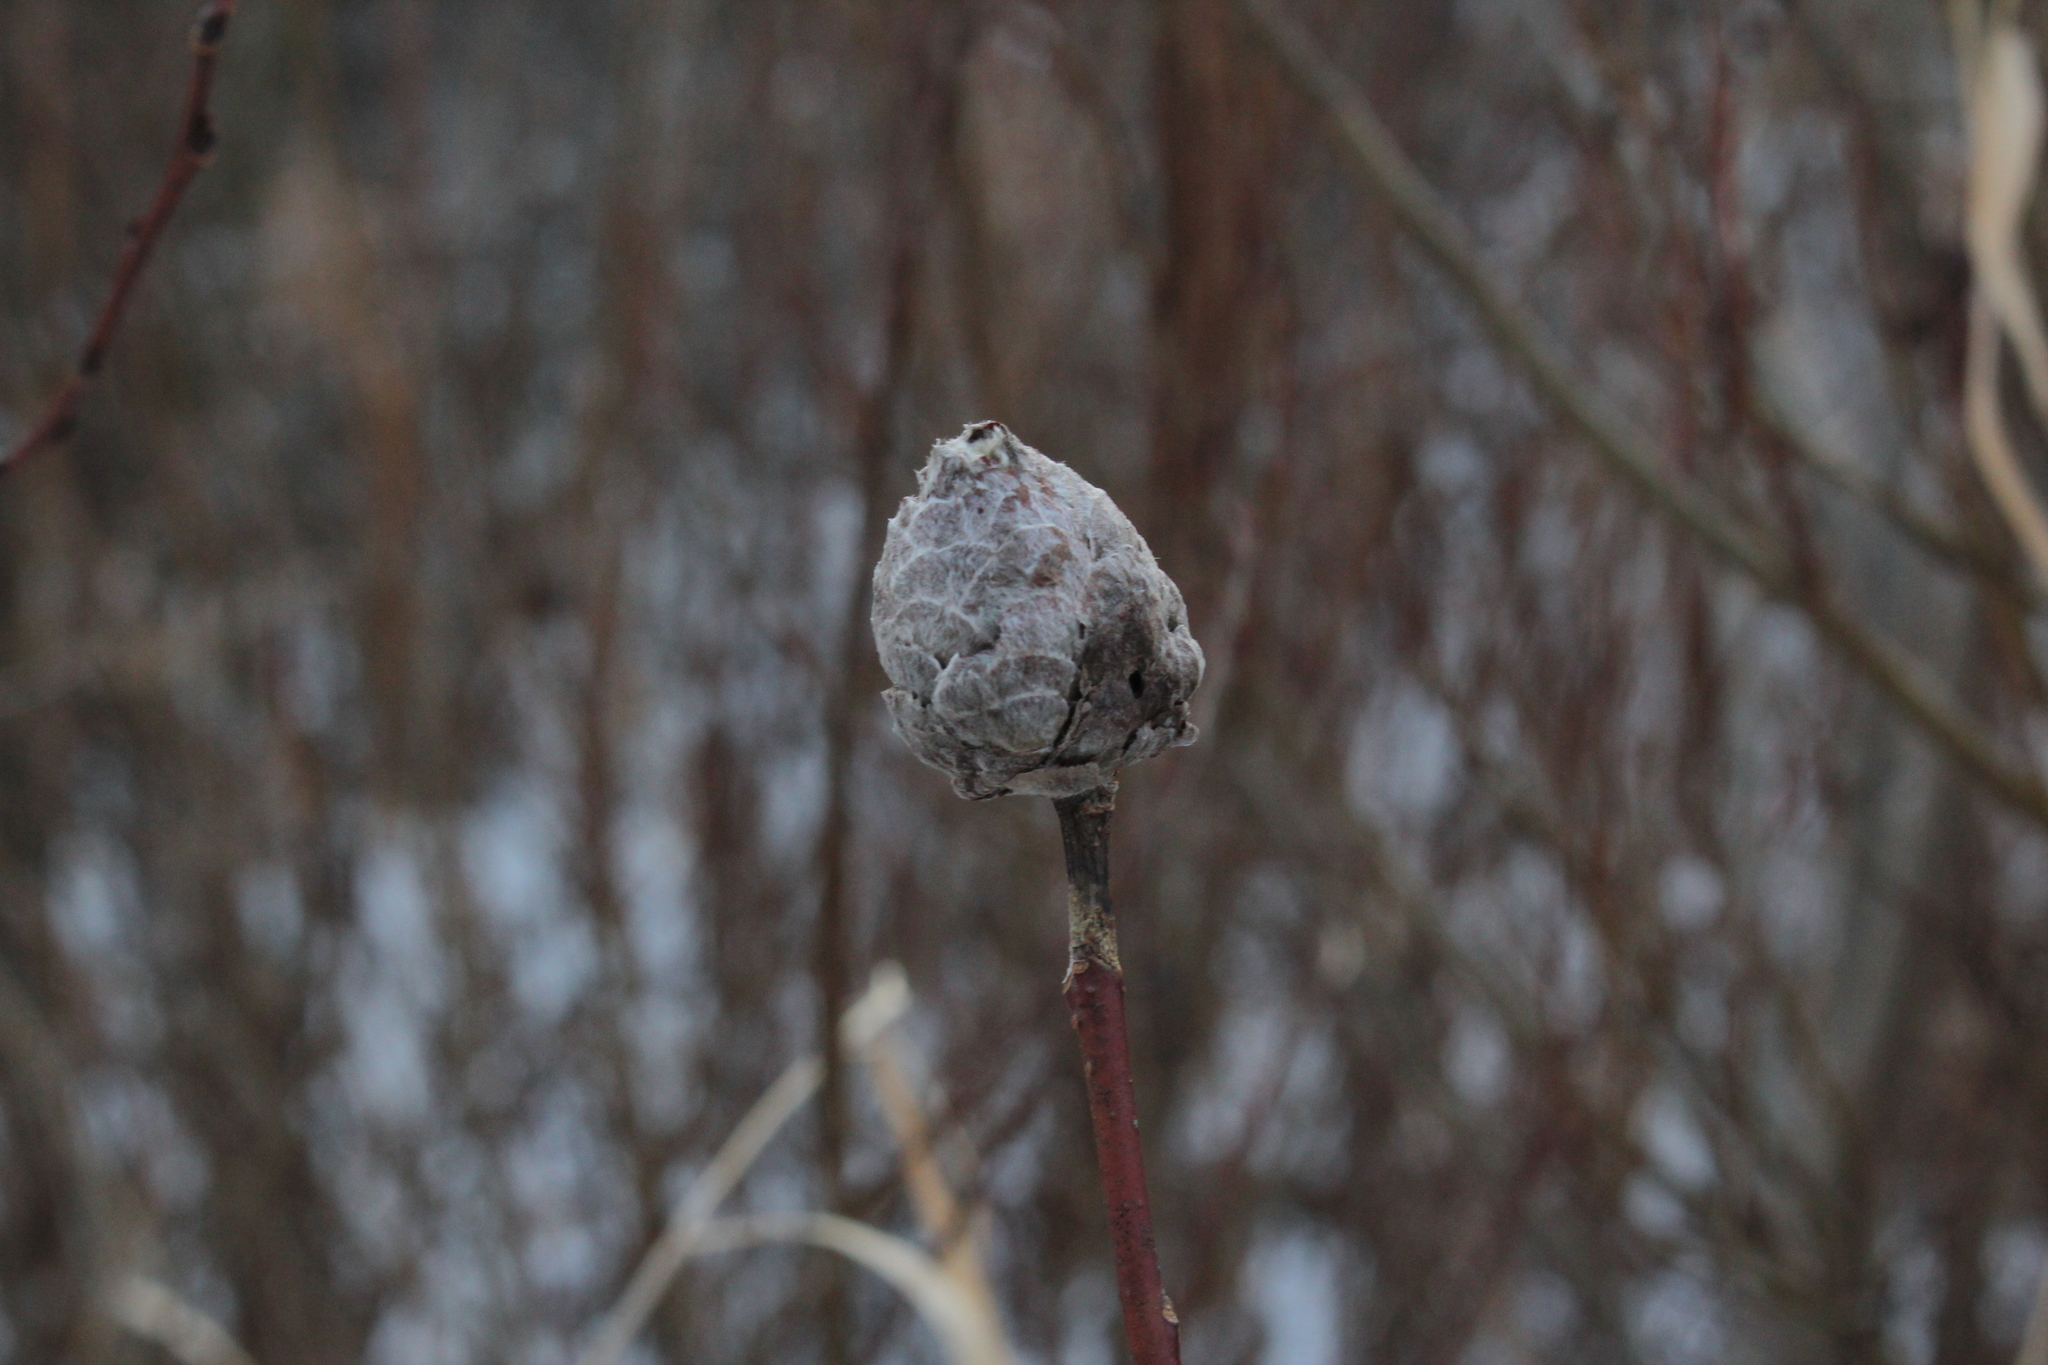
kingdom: Animalia
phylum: Arthropoda
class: Insecta
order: Diptera
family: Cecidomyiidae
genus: Rabdophaga
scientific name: Rabdophaga strobiloides
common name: Willow pinecone gall midge
